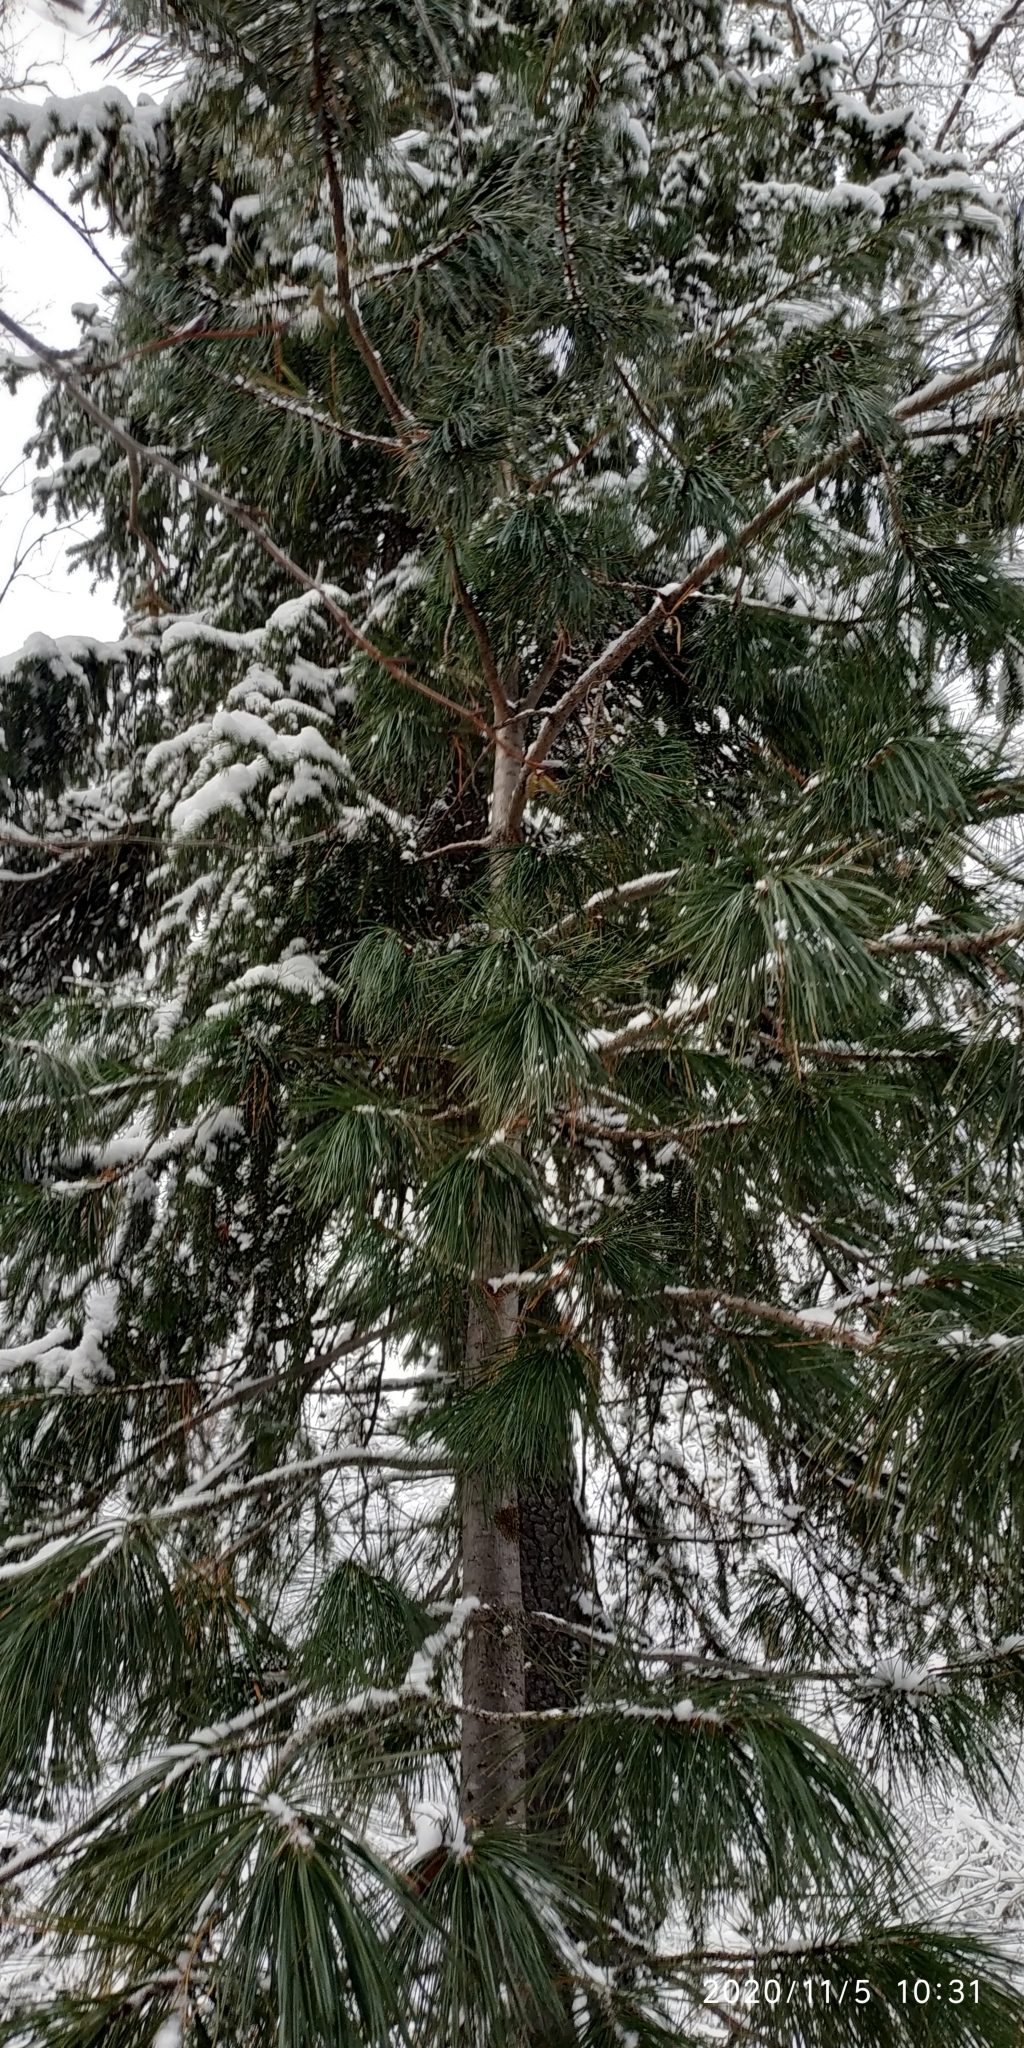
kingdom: Plantae
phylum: Tracheophyta
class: Pinopsida
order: Pinales
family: Pinaceae
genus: Pinus
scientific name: Pinus sibirica
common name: Siberian pine
